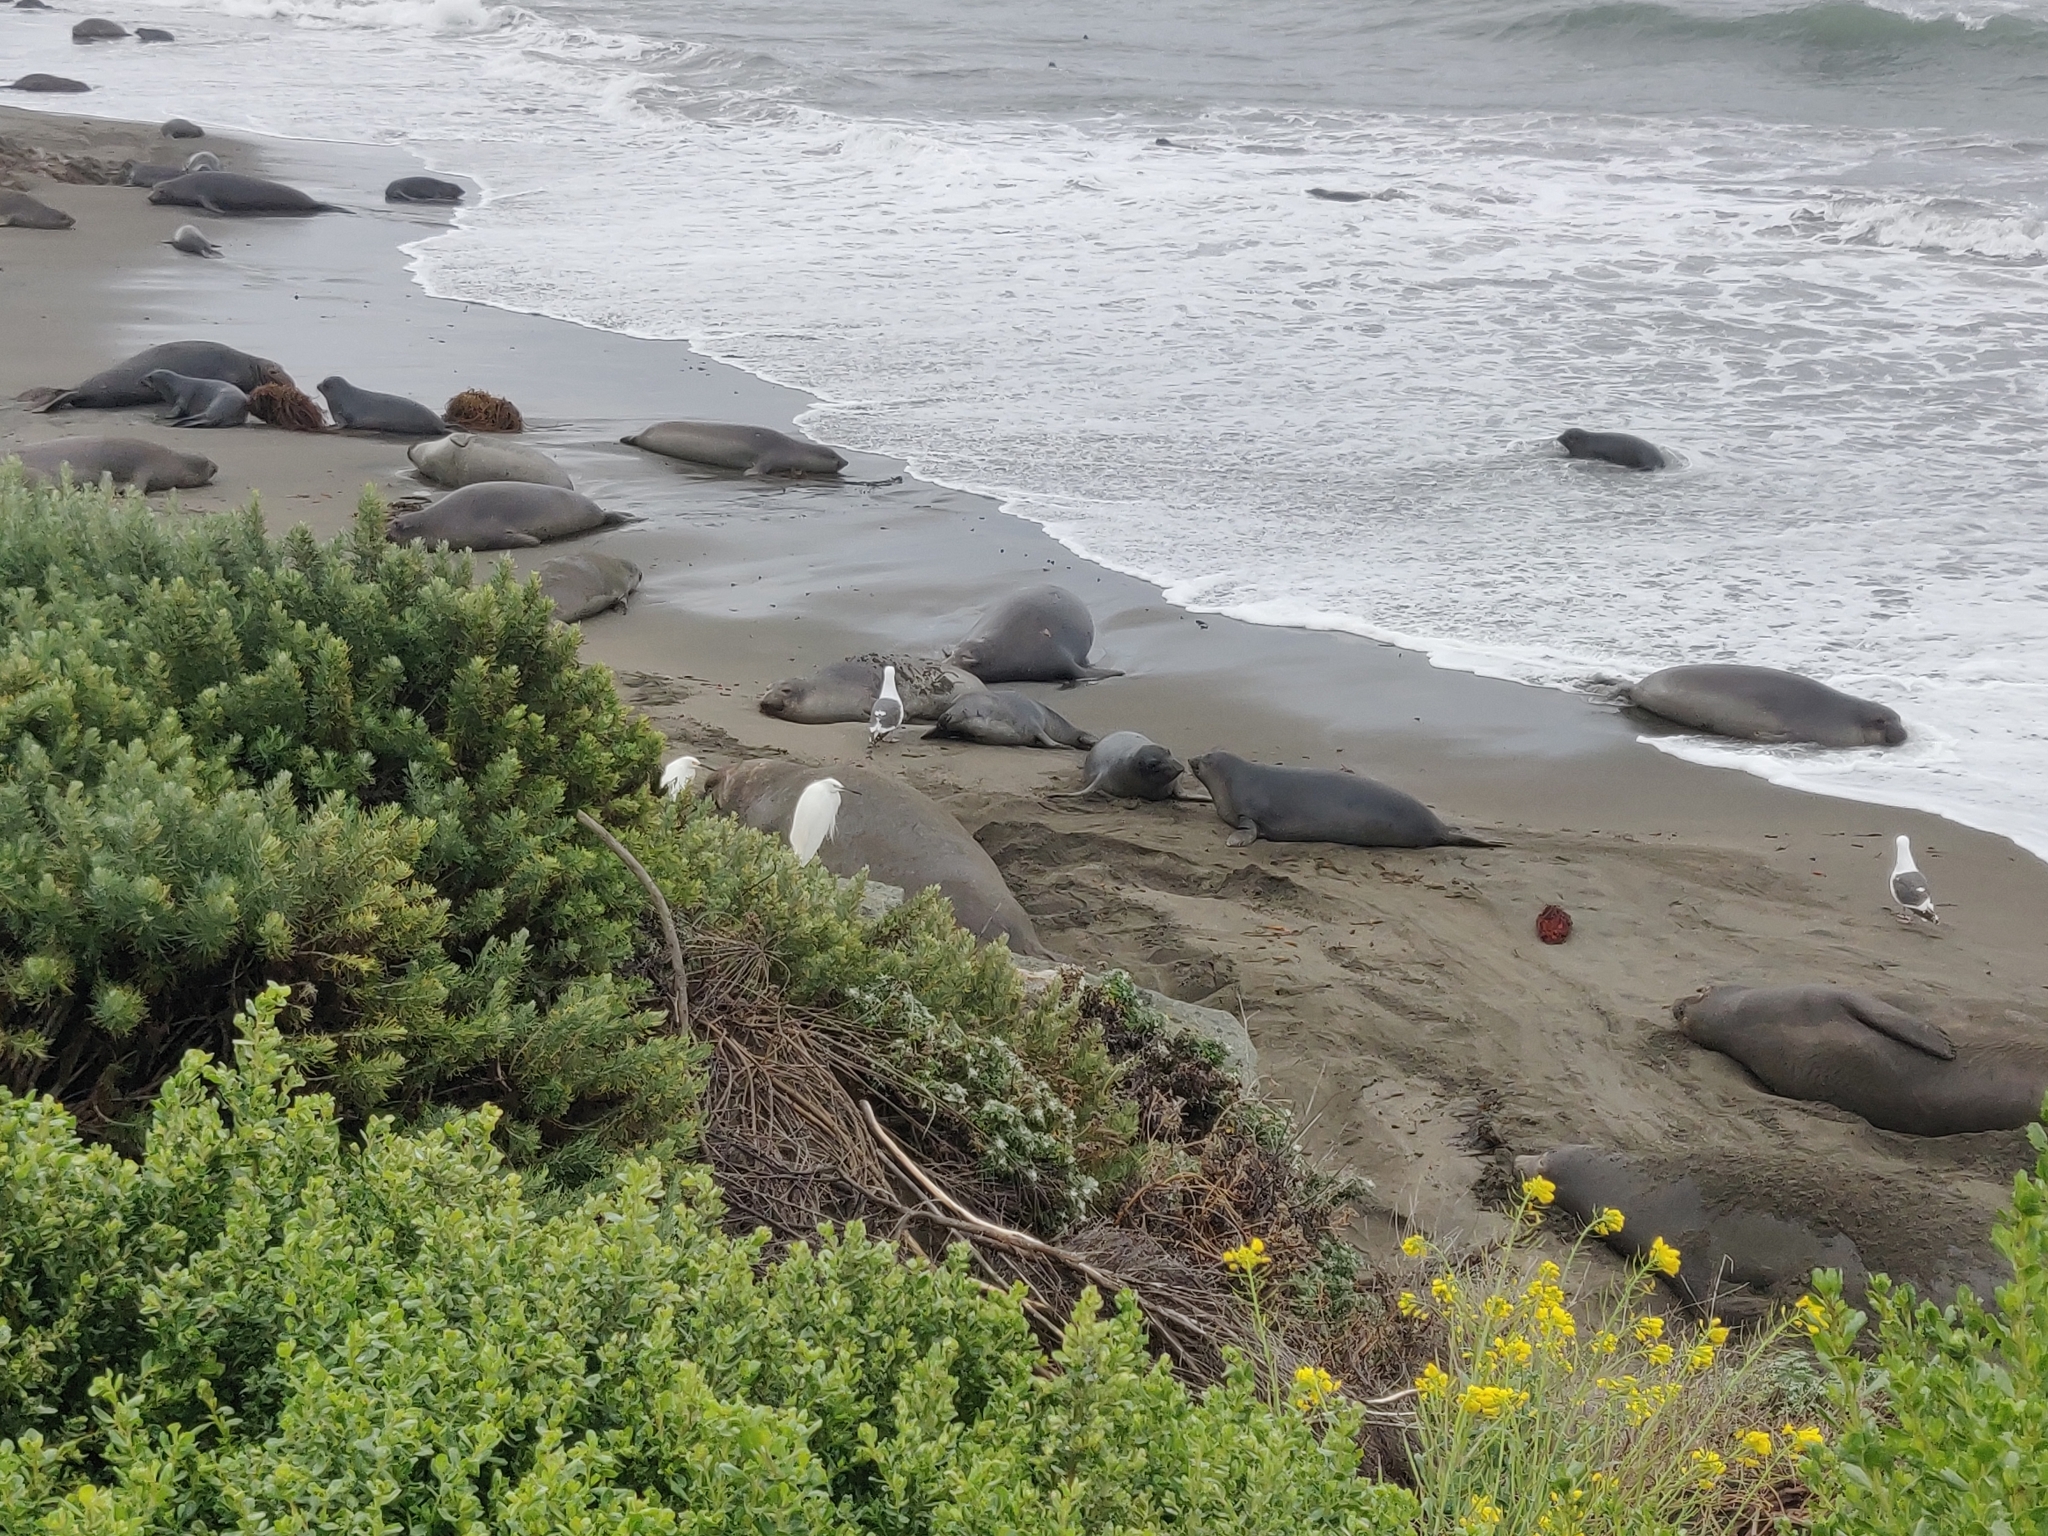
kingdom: Animalia
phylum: Chordata
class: Aves
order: Pelecaniformes
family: Ardeidae
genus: Egretta
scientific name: Egretta thula
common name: Snowy egret
